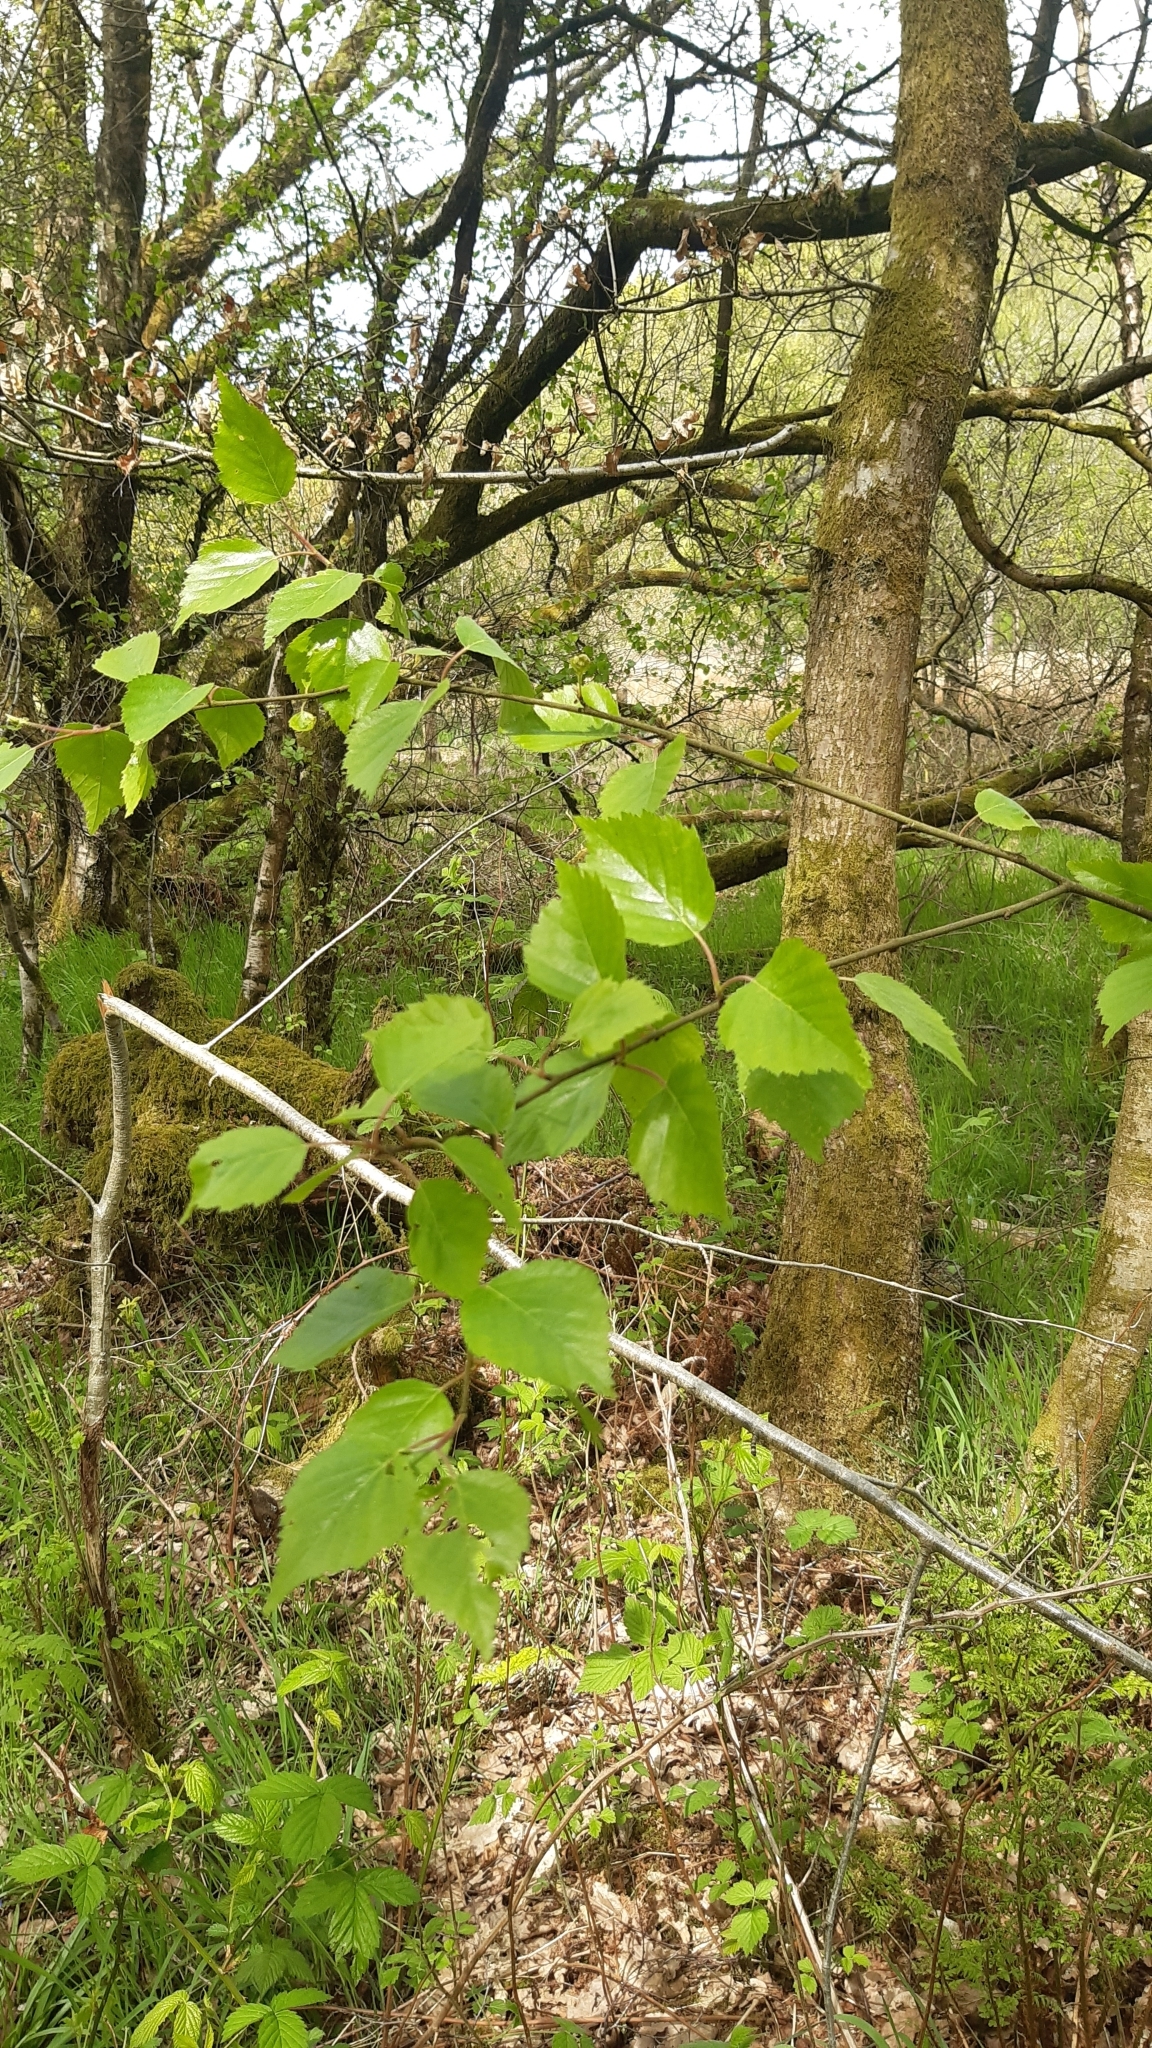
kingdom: Plantae
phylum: Tracheophyta
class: Magnoliopsida
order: Fagales
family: Betulaceae
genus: Betula
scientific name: Betula pubescens
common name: Downy birch
